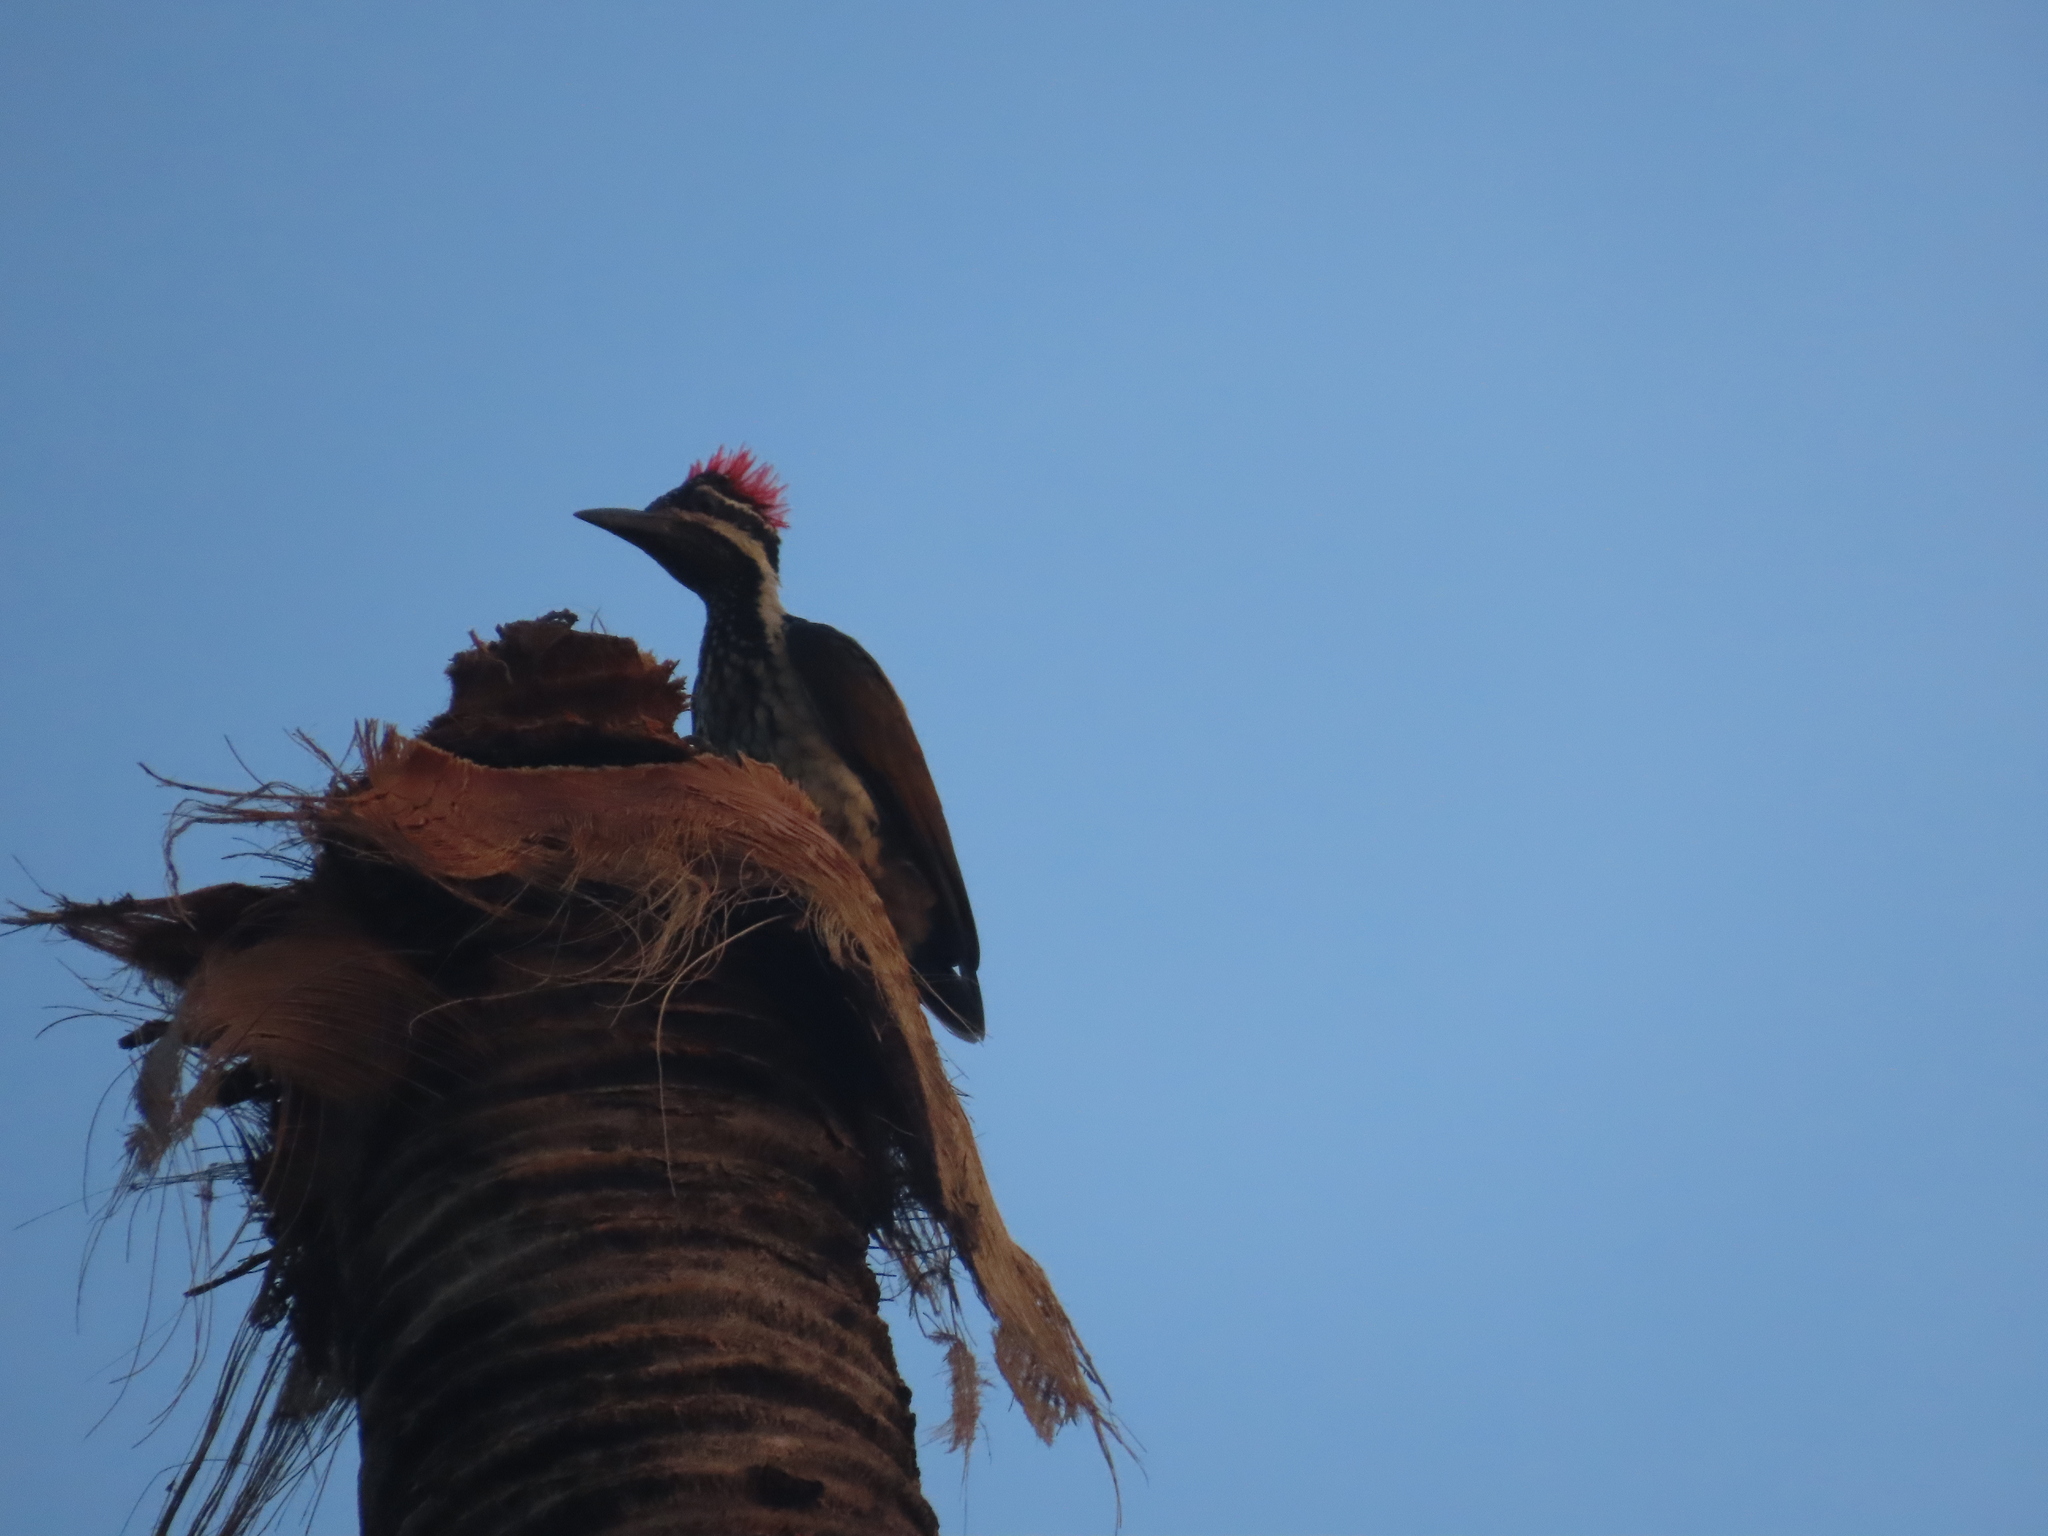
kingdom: Animalia
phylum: Chordata
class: Aves
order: Piciformes
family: Picidae
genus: Dinopium
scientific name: Dinopium benghalense
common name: Black-rumped flameback
